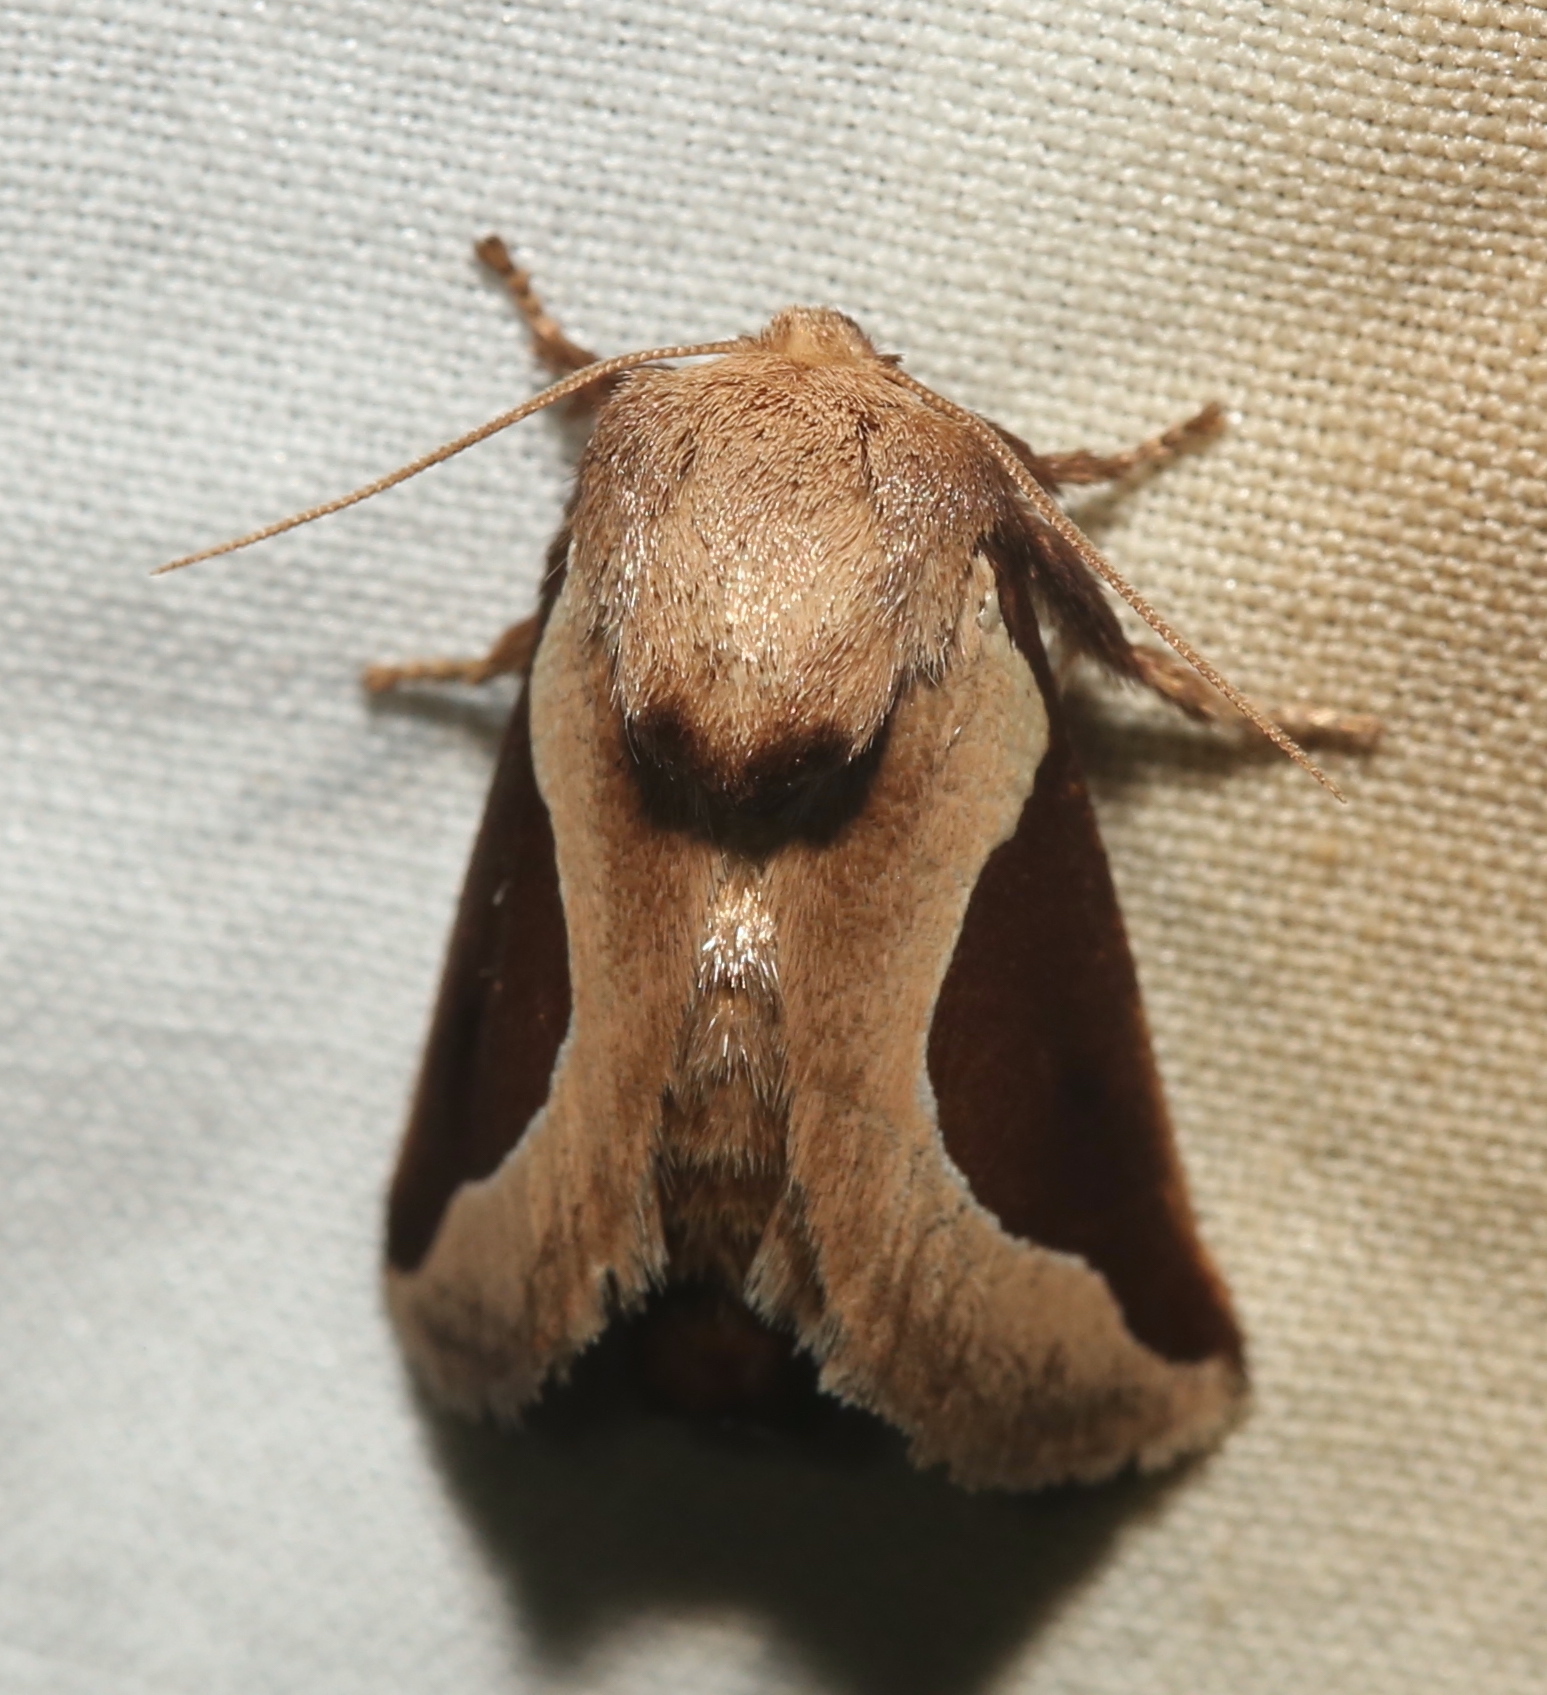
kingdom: Animalia
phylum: Arthropoda
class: Insecta
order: Lepidoptera
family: Limacodidae
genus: Prolimacodes
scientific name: Prolimacodes badia
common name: Skiff moth
